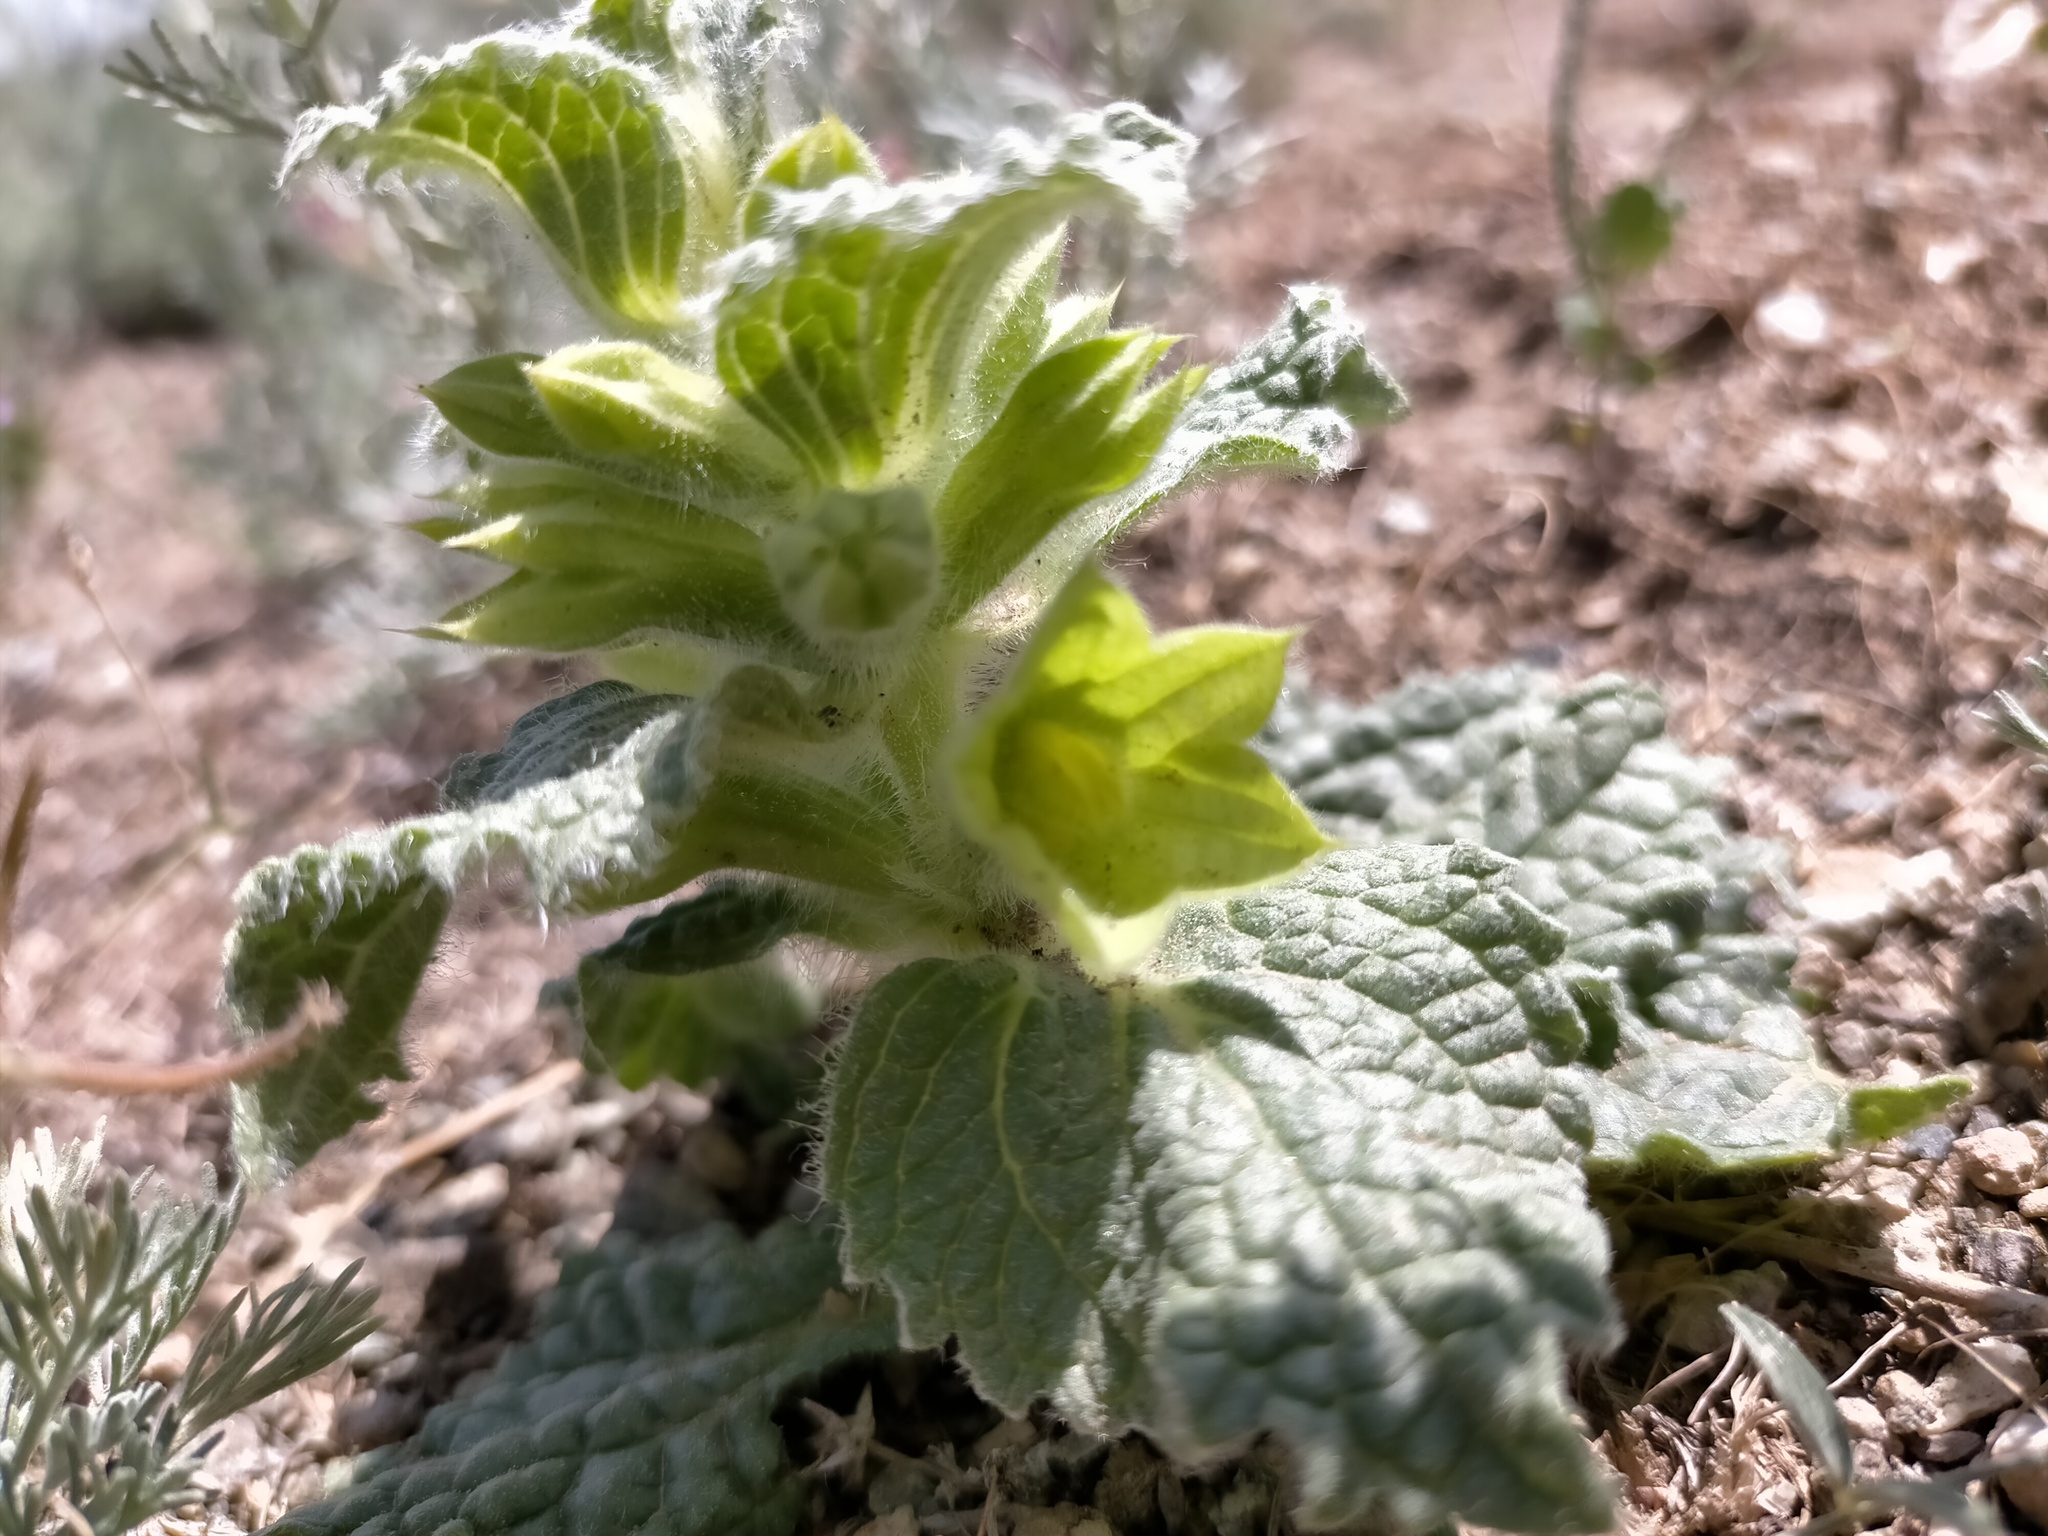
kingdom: Plantae
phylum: Tracheophyta
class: Magnoliopsida
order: Lamiales
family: Lamiaceae
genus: Phlomoides
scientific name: Phlomoides molucelloides
